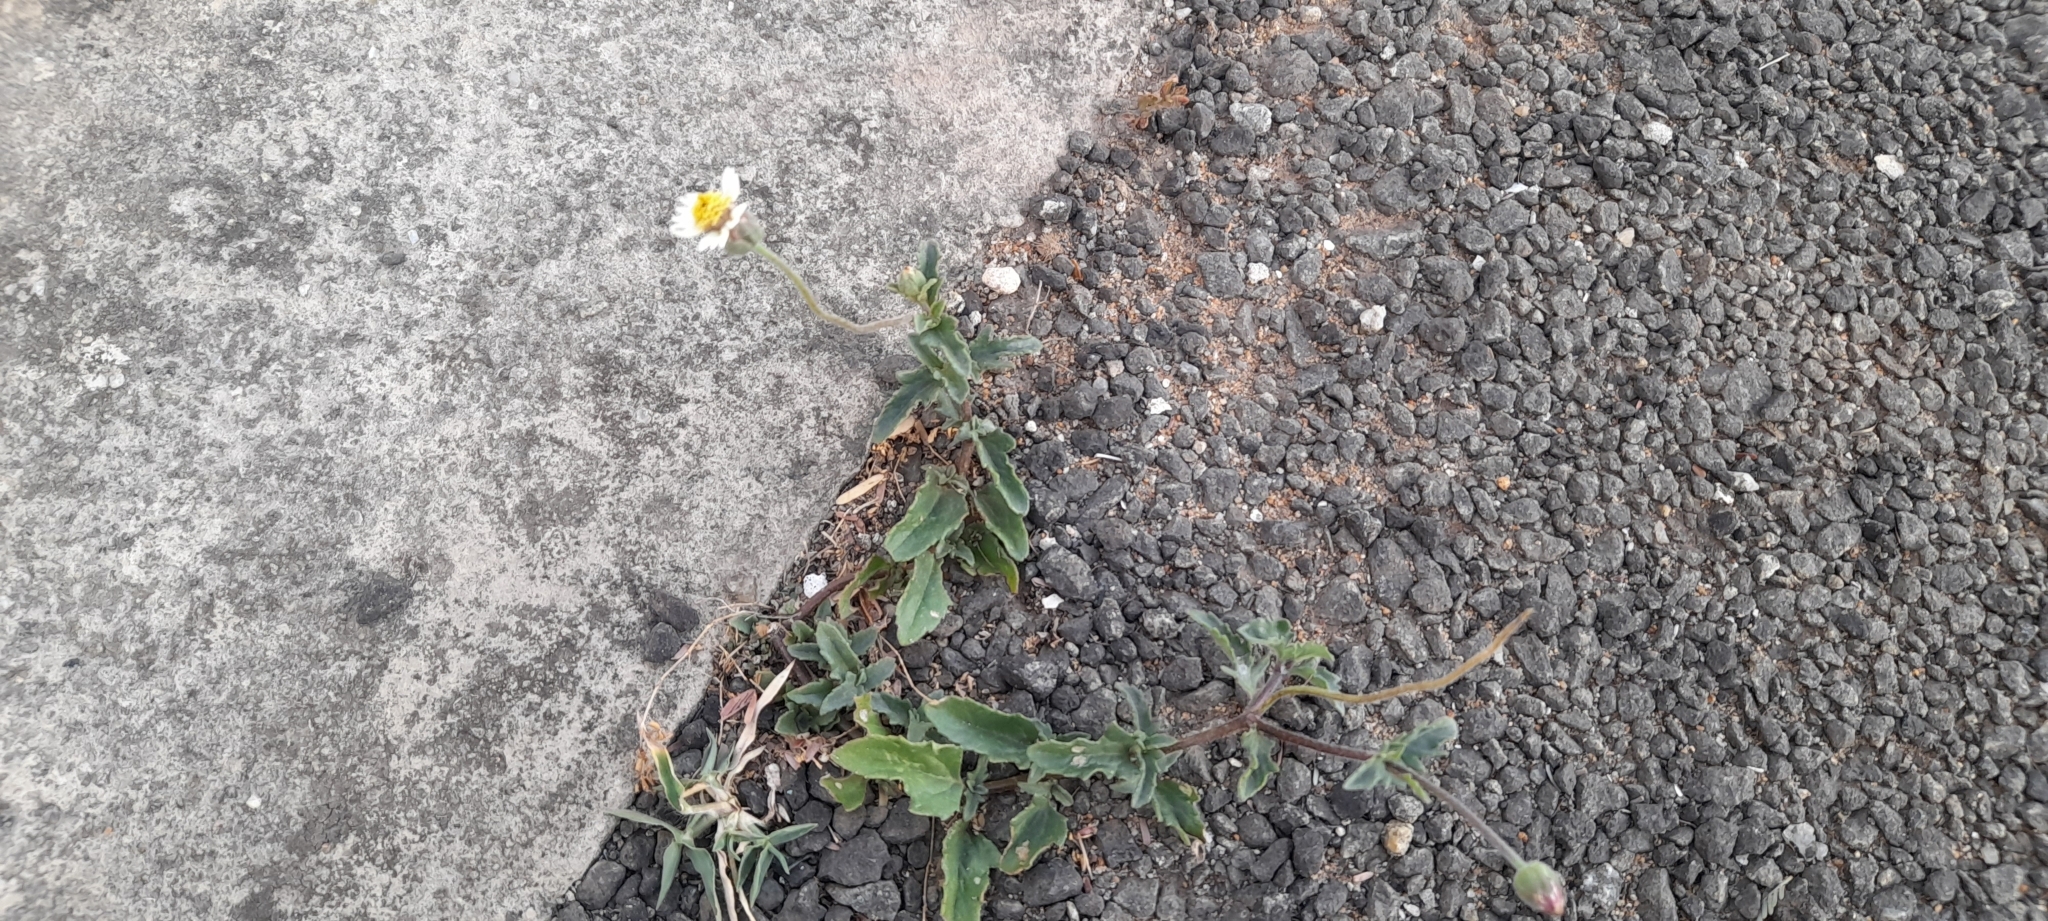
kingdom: Plantae
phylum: Tracheophyta
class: Magnoliopsida
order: Asterales
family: Asteraceae
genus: Tridax
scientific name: Tridax procumbens
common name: Coatbuttons
